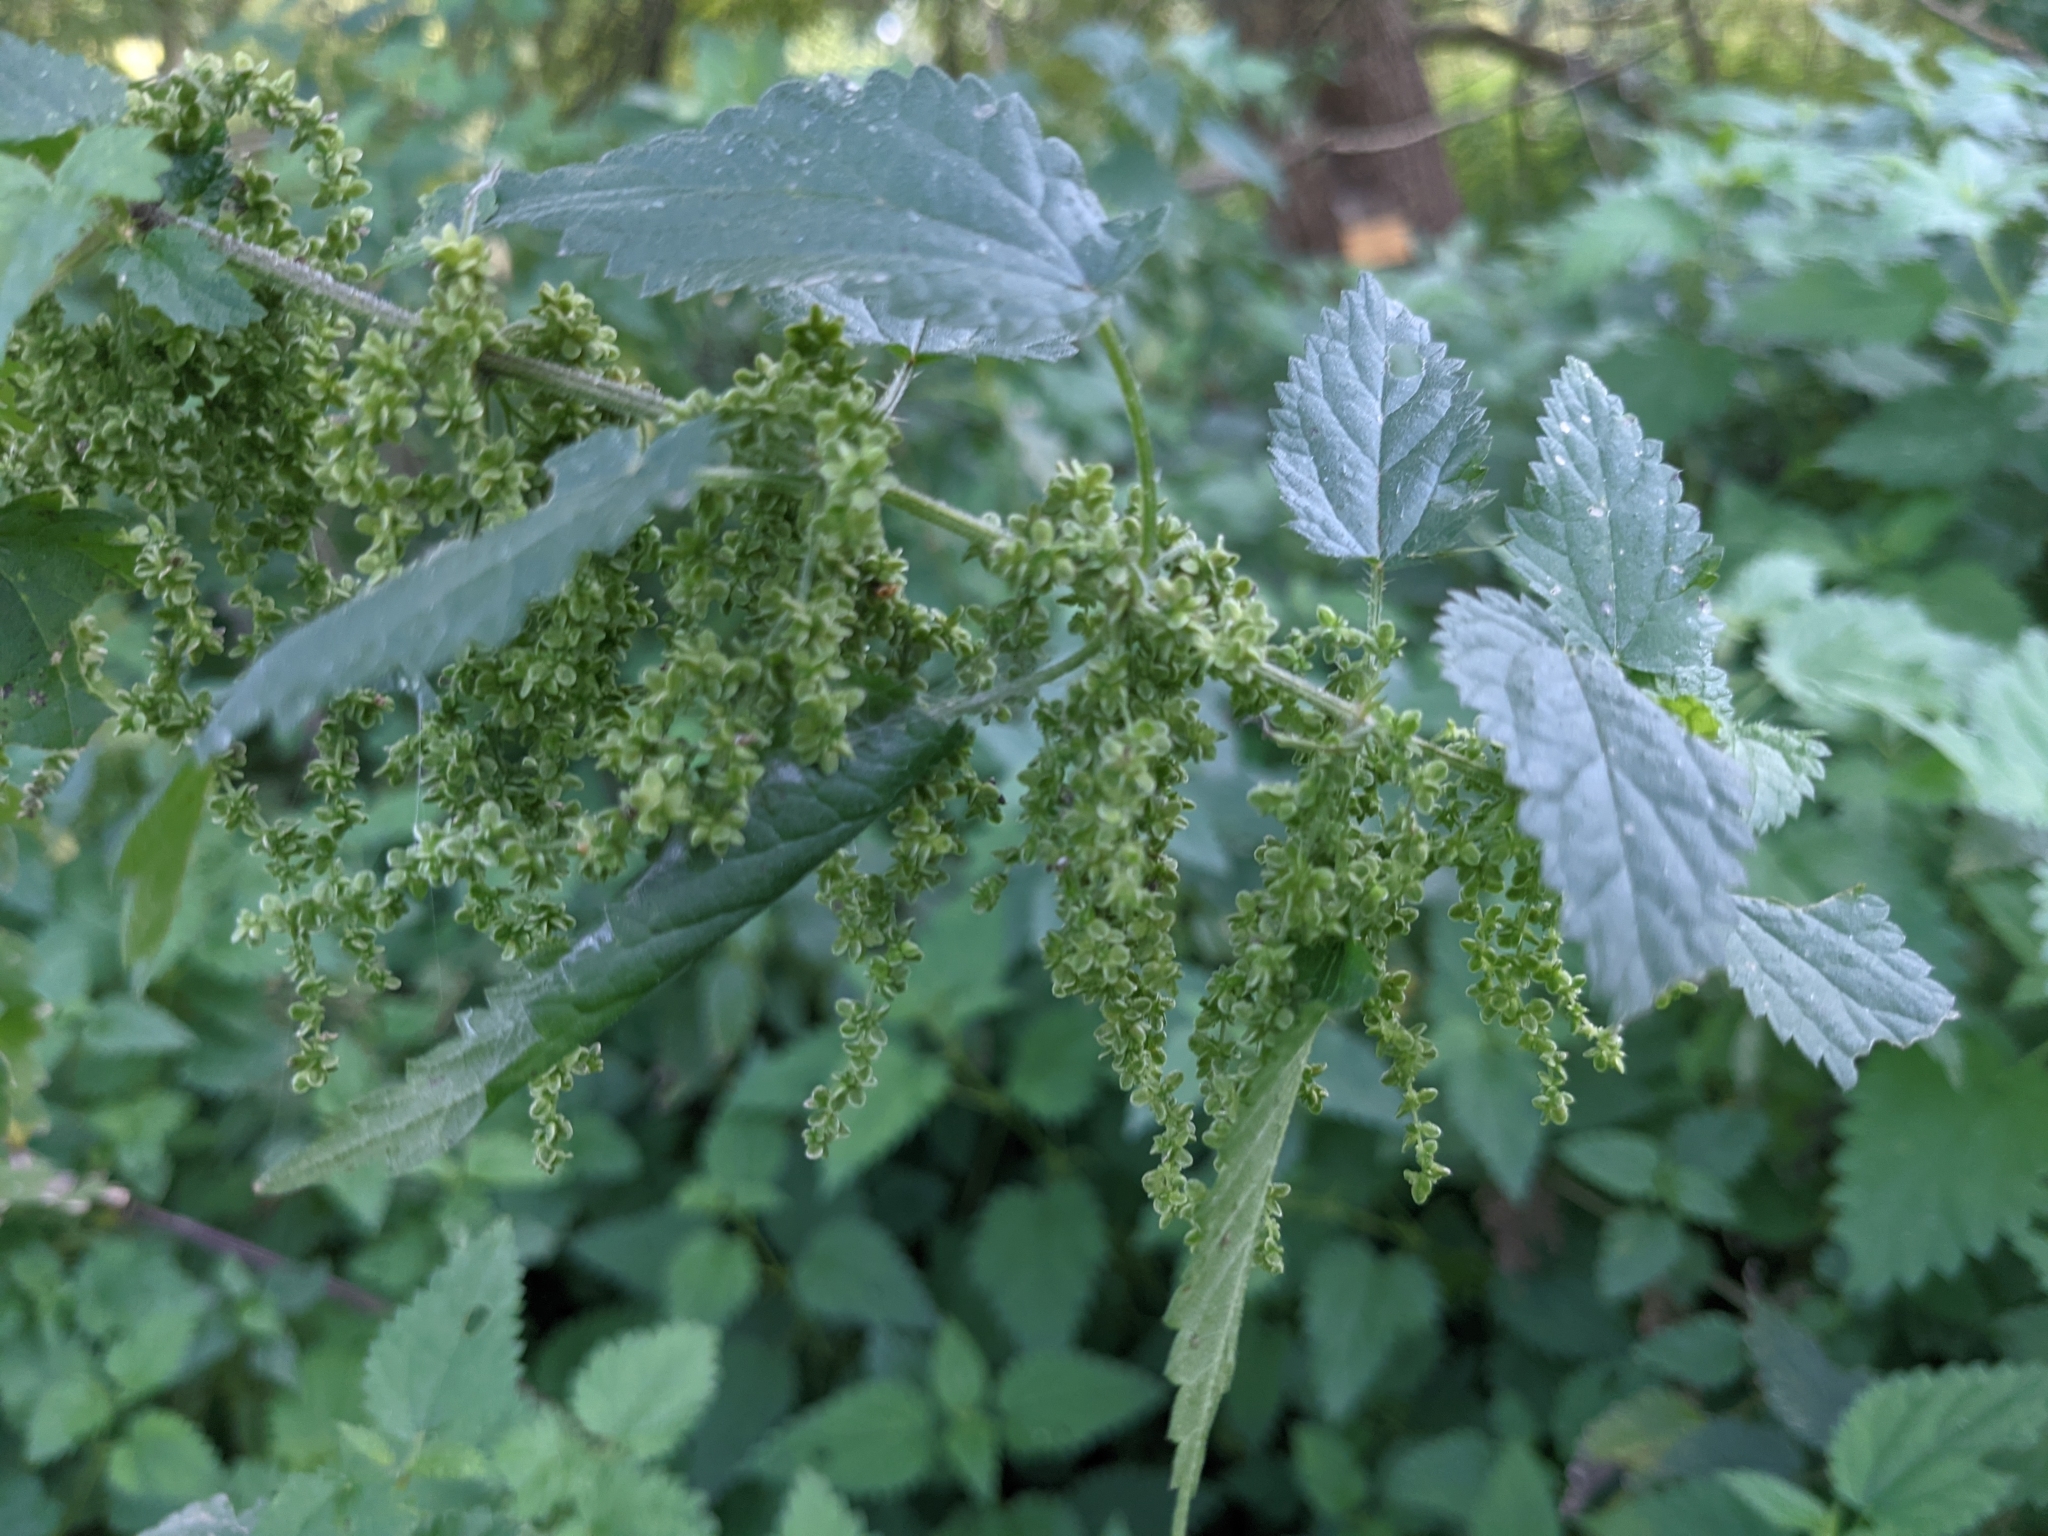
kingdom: Plantae
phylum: Tracheophyta
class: Magnoliopsida
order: Rosales
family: Urticaceae
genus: Urtica
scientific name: Urtica dioica
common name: Common nettle
